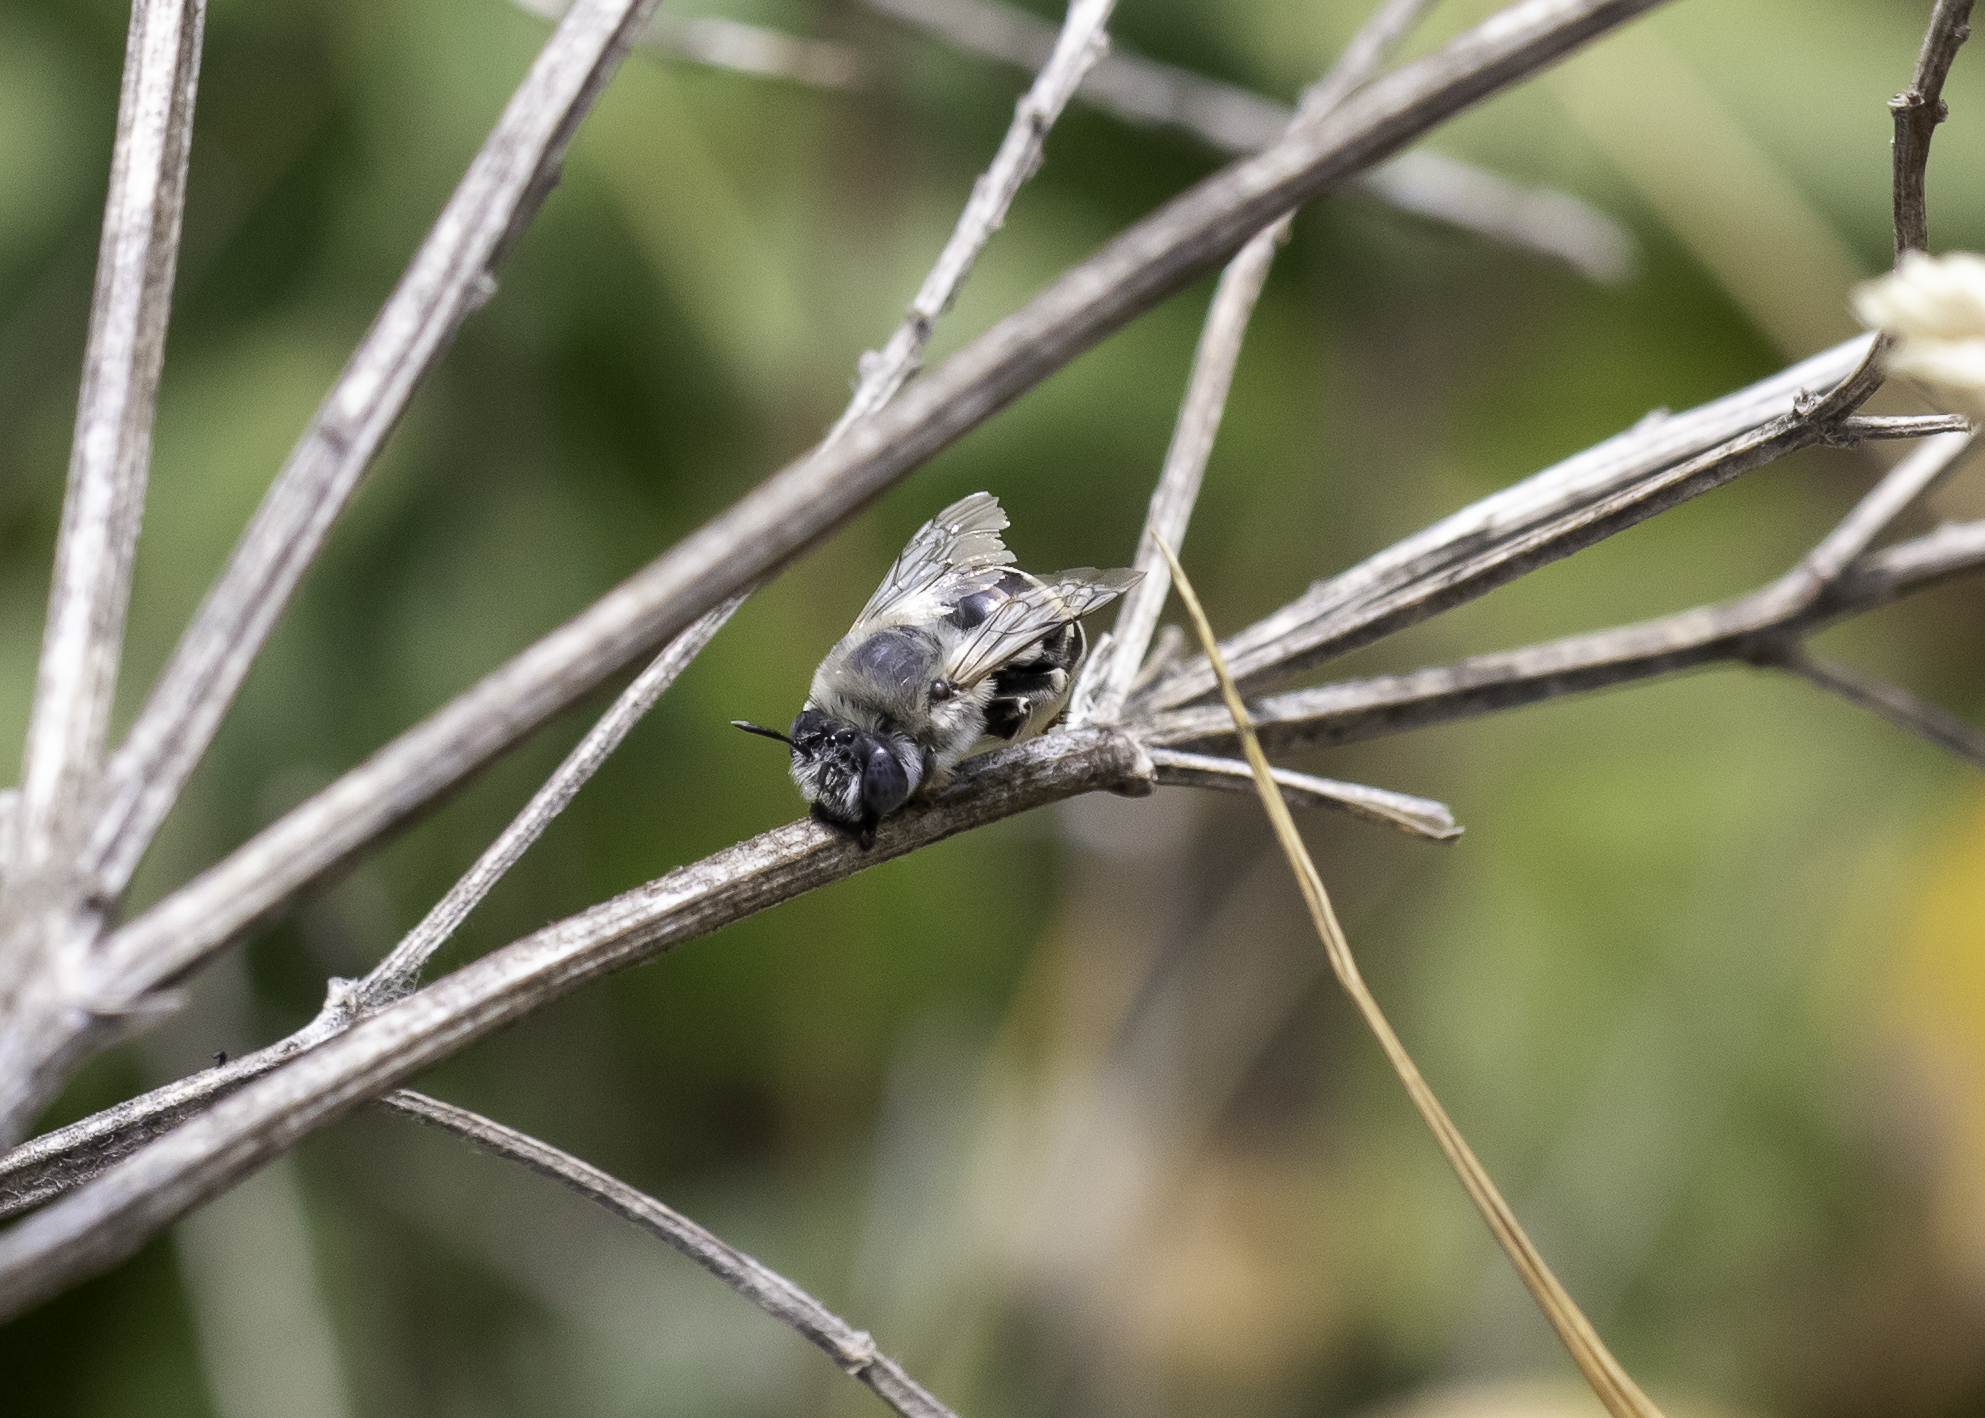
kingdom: Animalia
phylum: Arthropoda
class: Insecta
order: Hymenoptera
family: Apidae
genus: Anthophora
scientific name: Anthophora urbana
